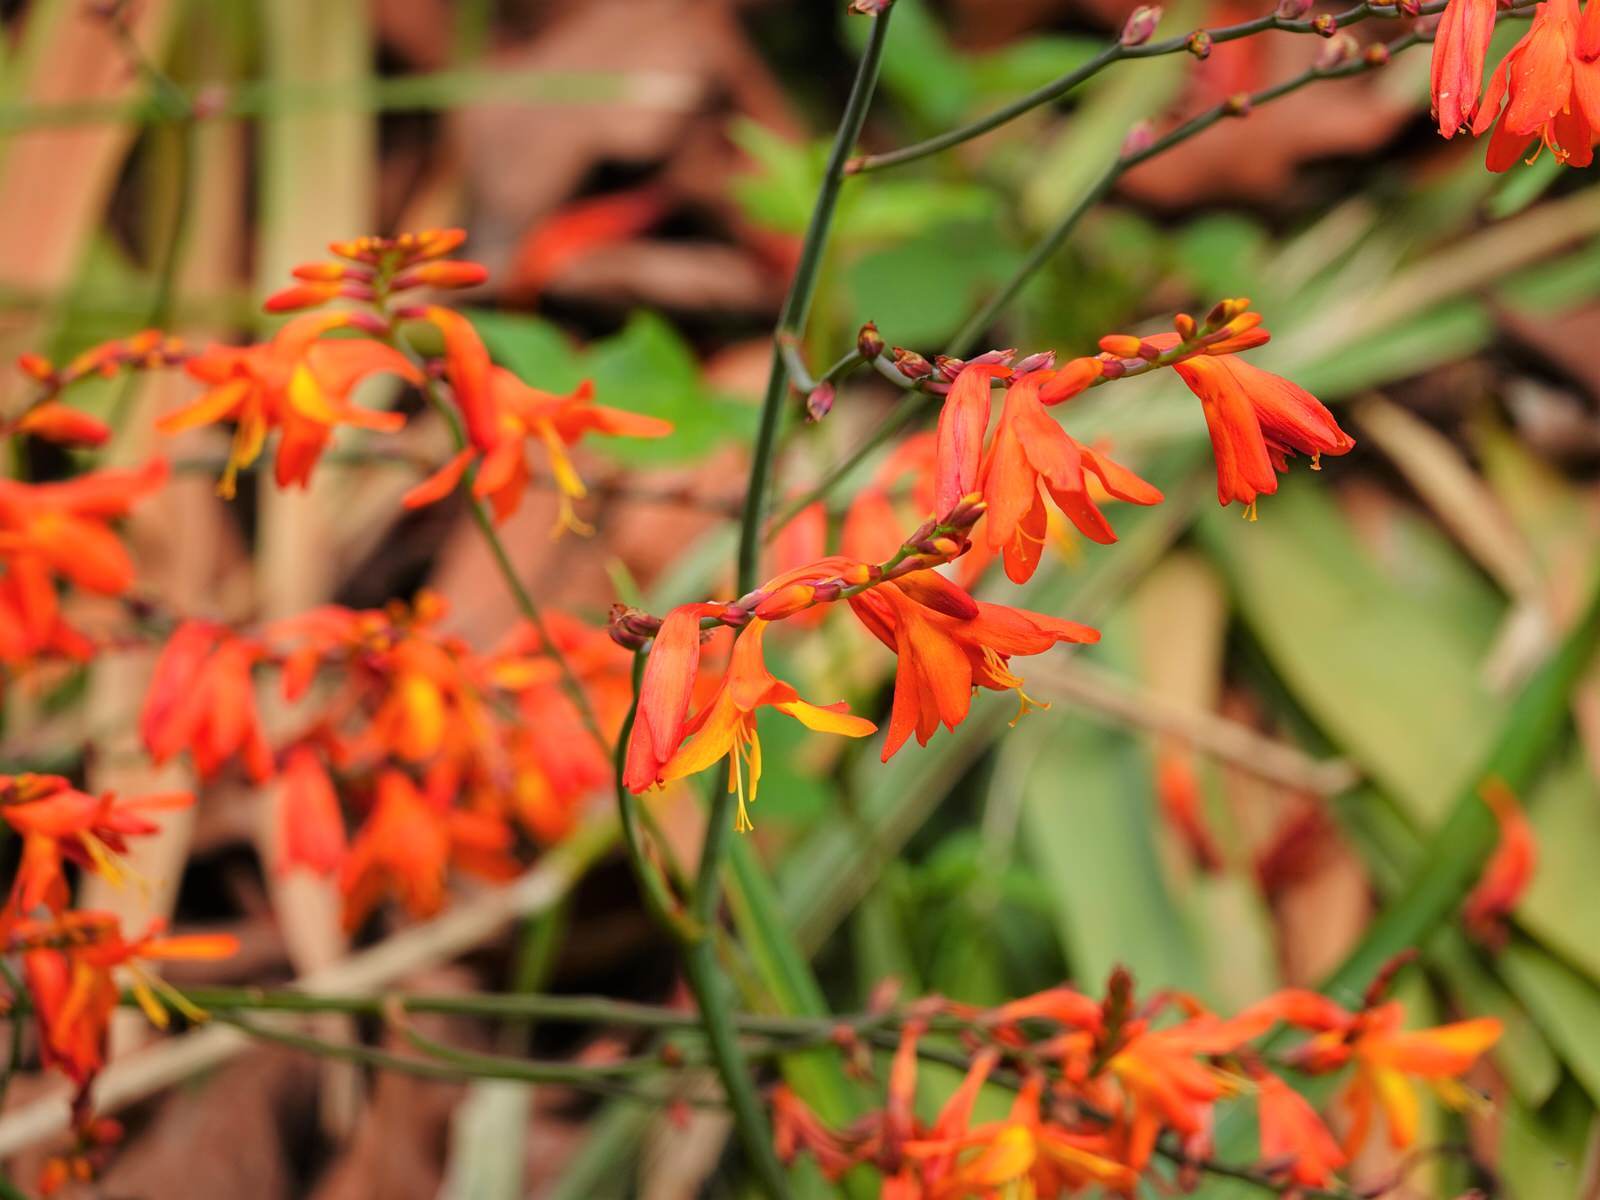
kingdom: Plantae
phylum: Tracheophyta
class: Liliopsida
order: Asparagales
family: Iridaceae
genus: Crocosmia
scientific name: Crocosmia crocosmiiflora
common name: Montbretia
